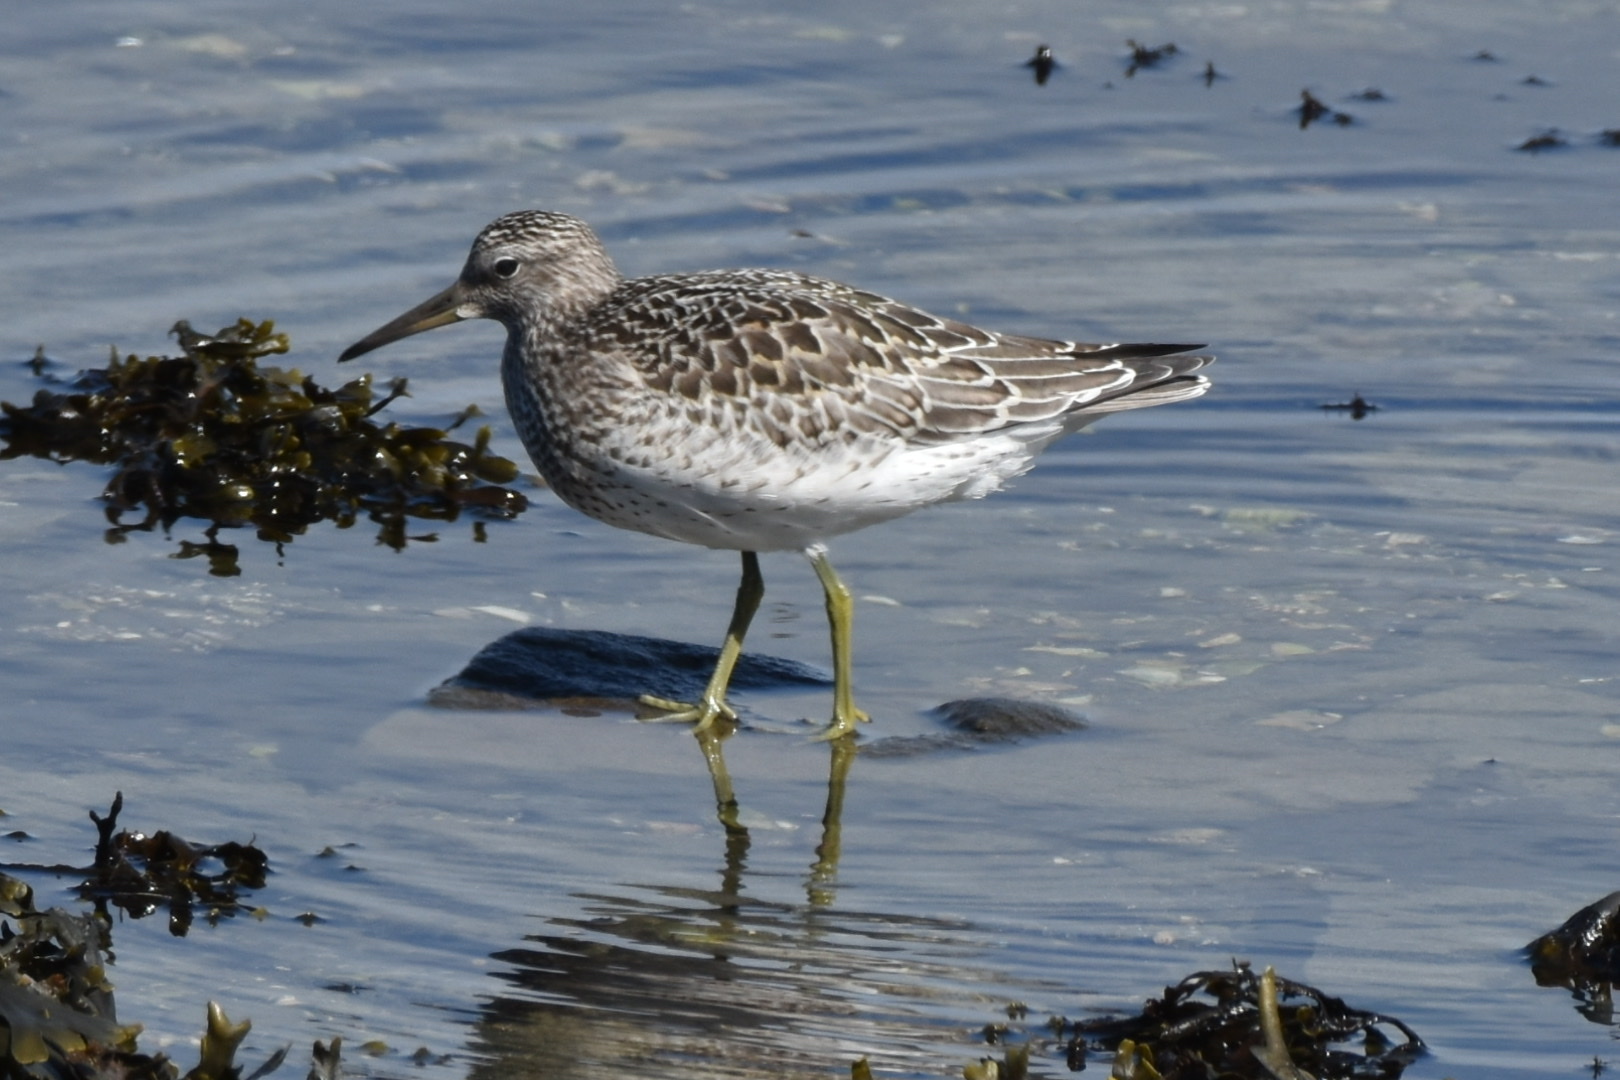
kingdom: Animalia
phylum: Chordata
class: Aves
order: Charadriiformes
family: Scolopacidae
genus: Calidris
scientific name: Calidris tenuirostris
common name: Great knot
